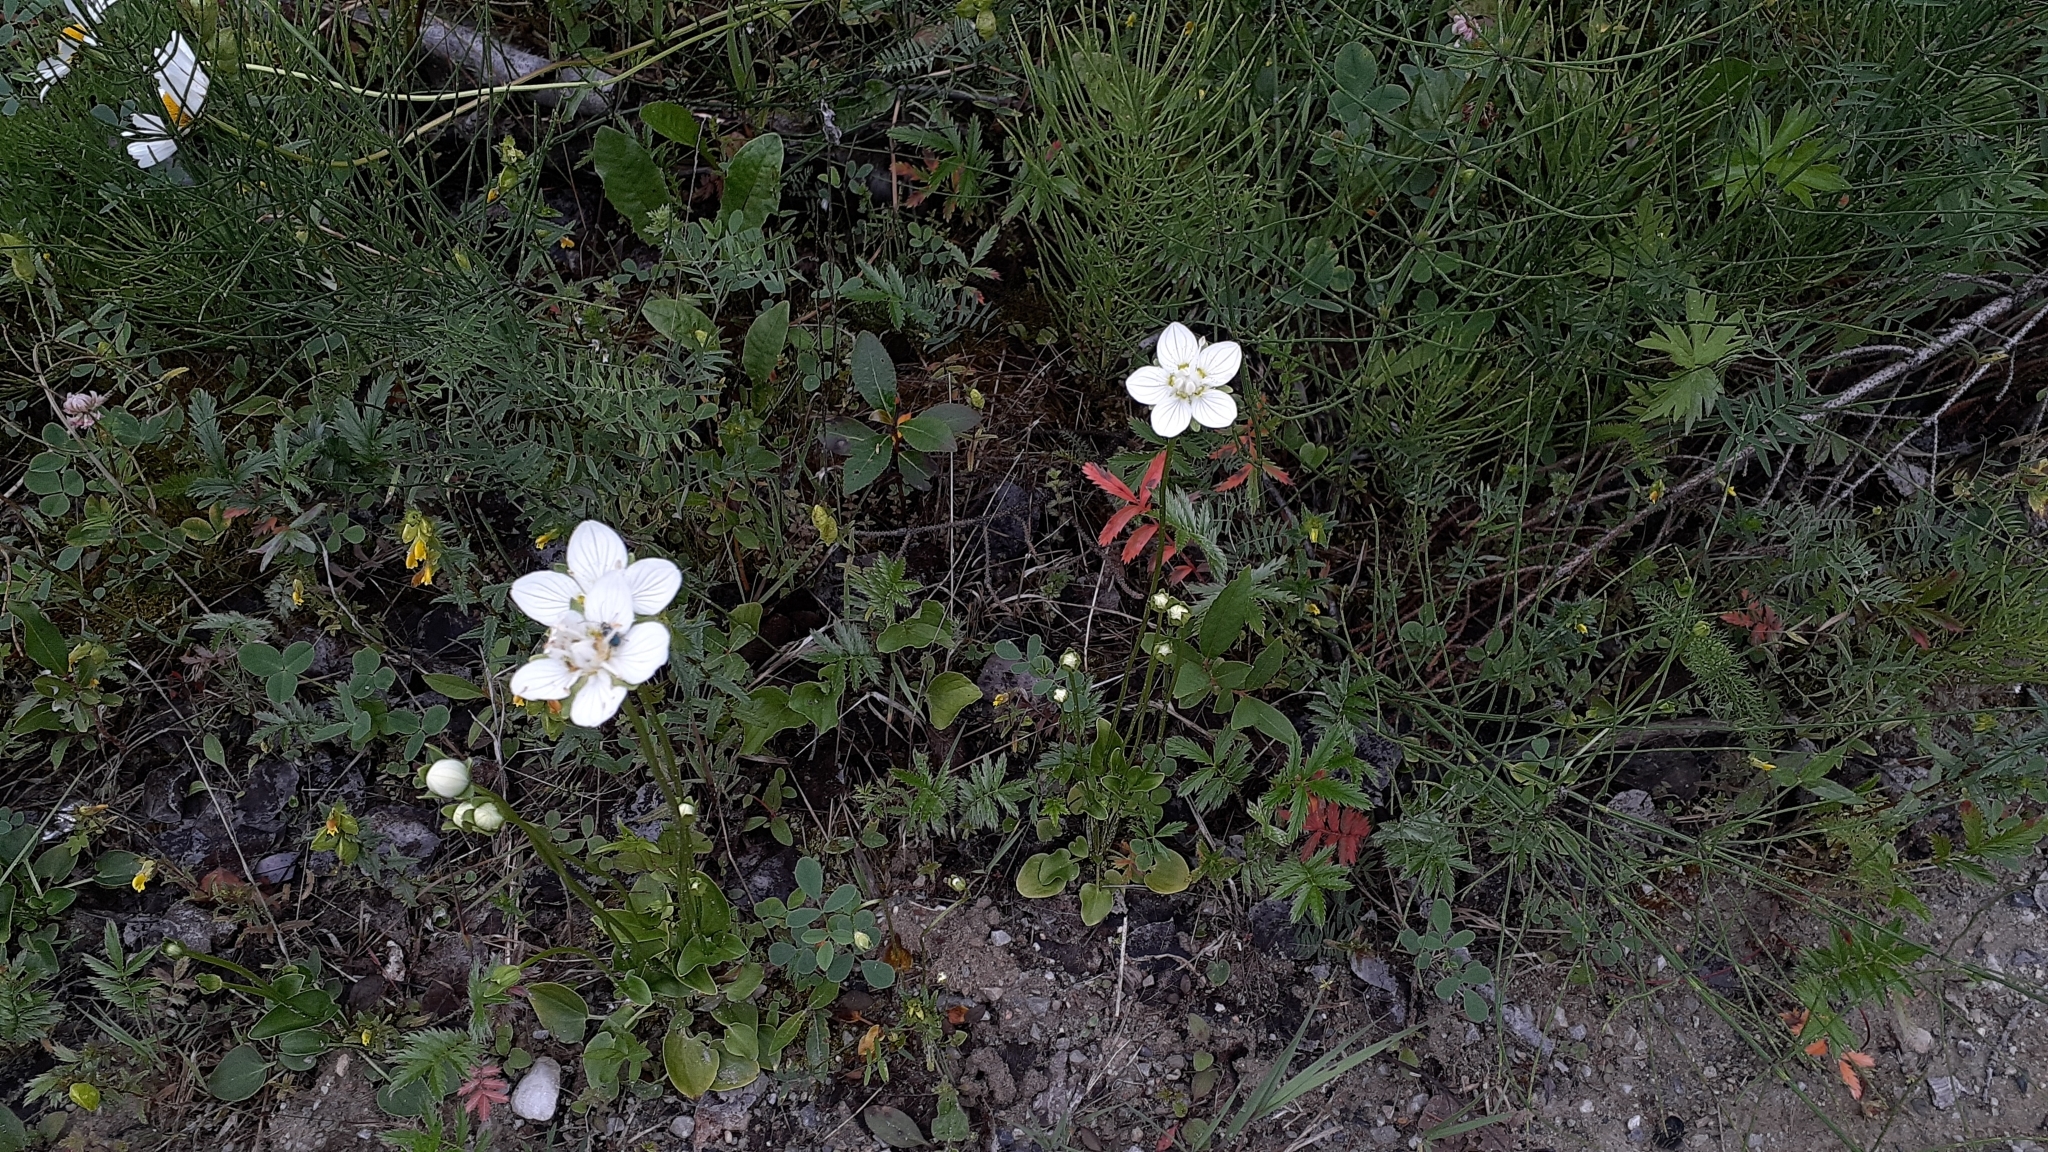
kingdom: Plantae
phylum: Tracheophyta
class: Magnoliopsida
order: Celastrales
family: Parnassiaceae
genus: Parnassia
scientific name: Parnassia palustris
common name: Grass-of-parnassus
